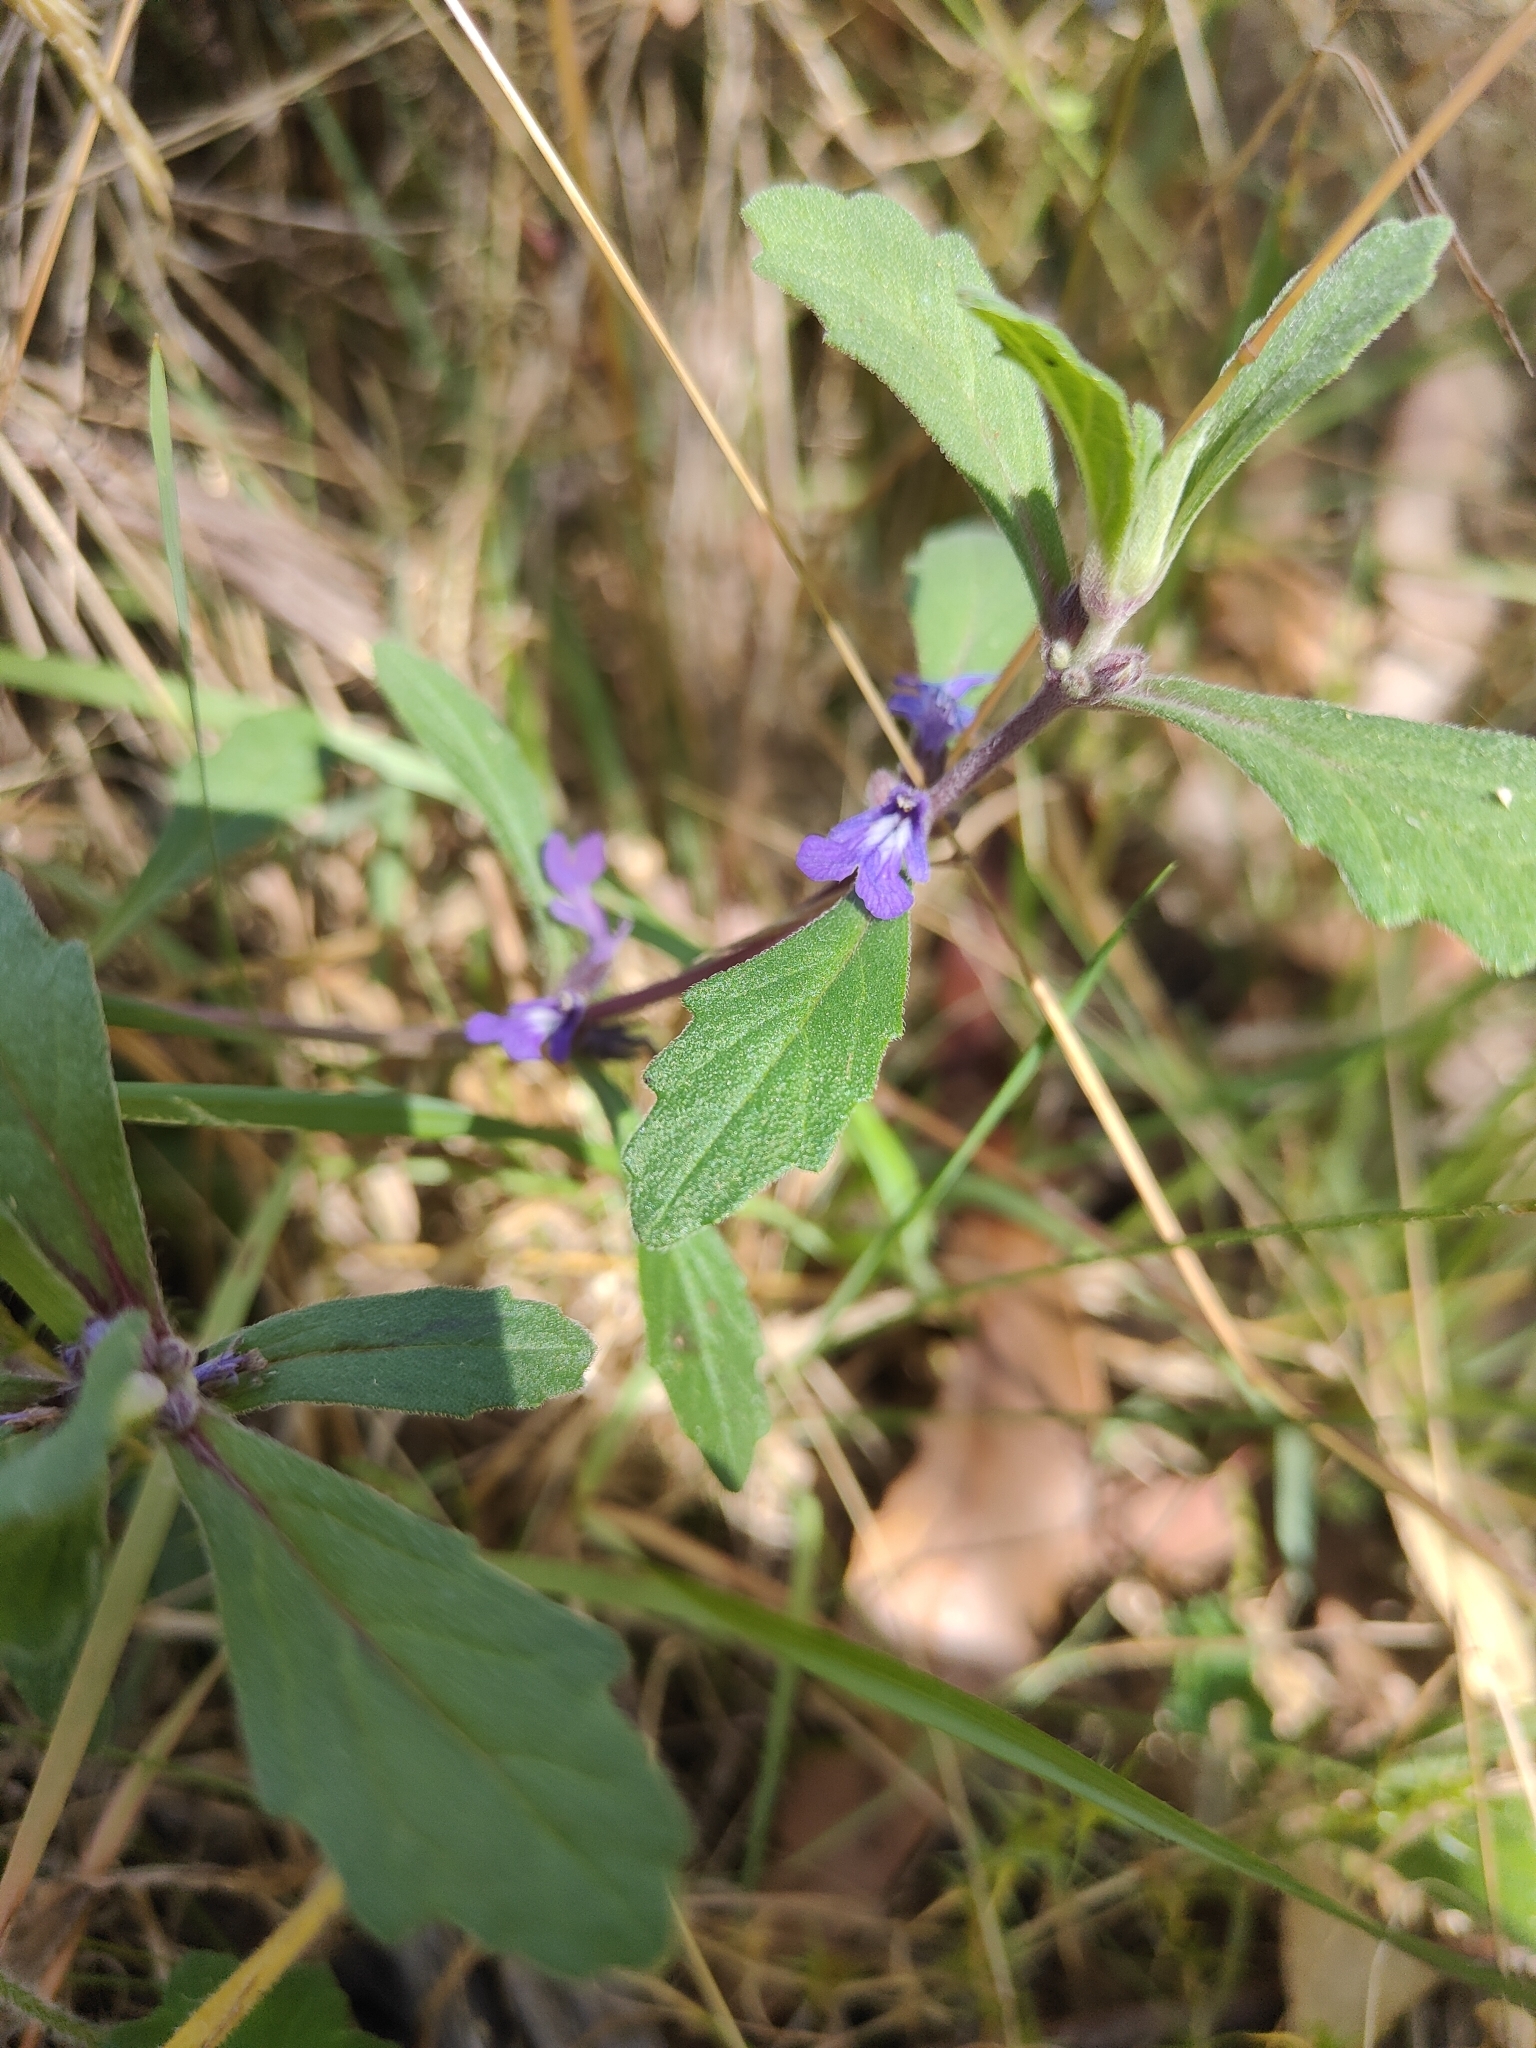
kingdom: Plantae
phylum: Tracheophyta
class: Magnoliopsida
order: Lamiales
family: Lamiaceae
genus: Ajuga
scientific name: Ajuga australis
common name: Australian bugle
